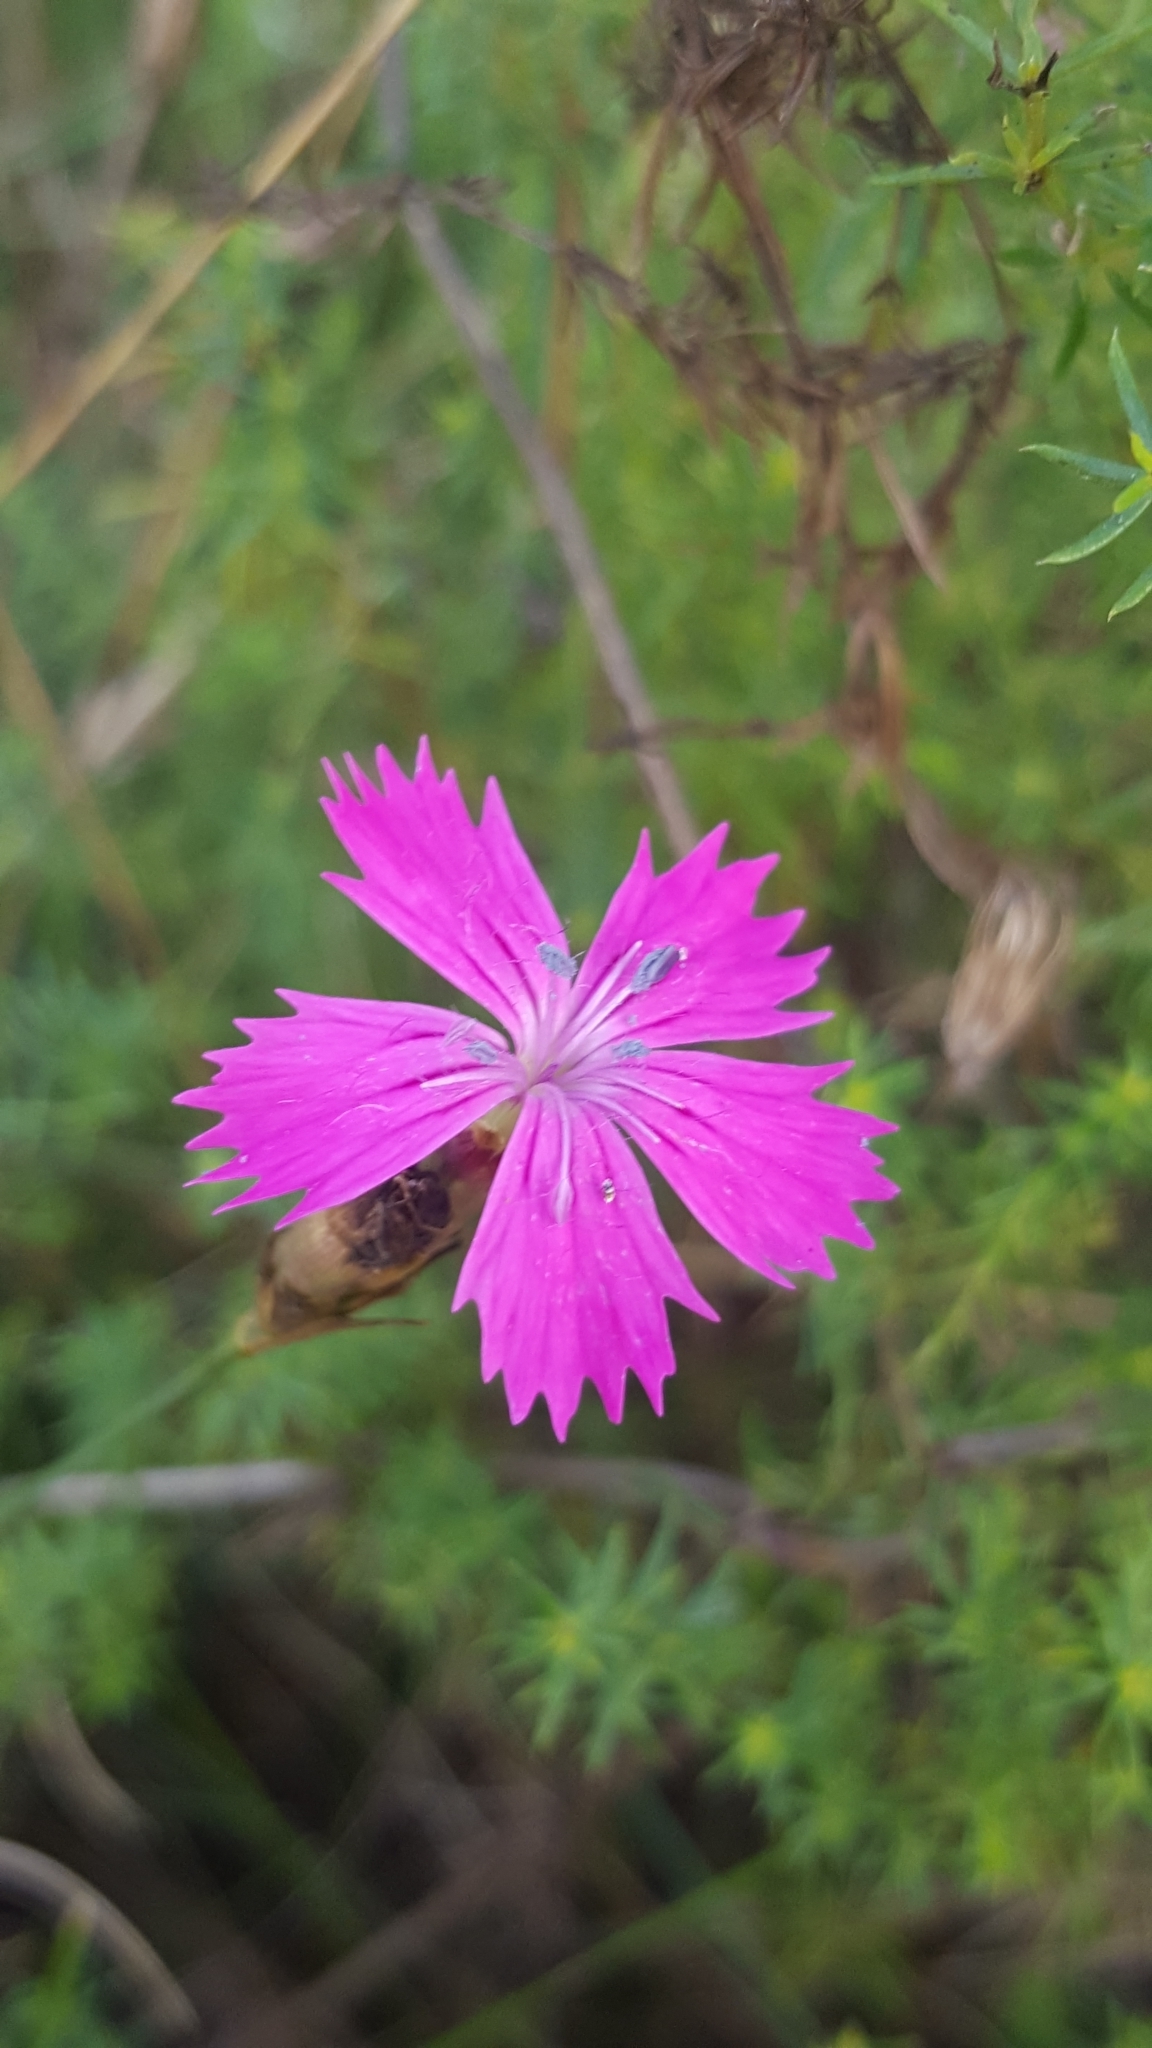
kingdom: Plantae
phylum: Tracheophyta
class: Magnoliopsida
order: Caryophyllales
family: Caryophyllaceae
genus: Dianthus
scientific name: Dianthus carthusianorum
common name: Carthusian pink
